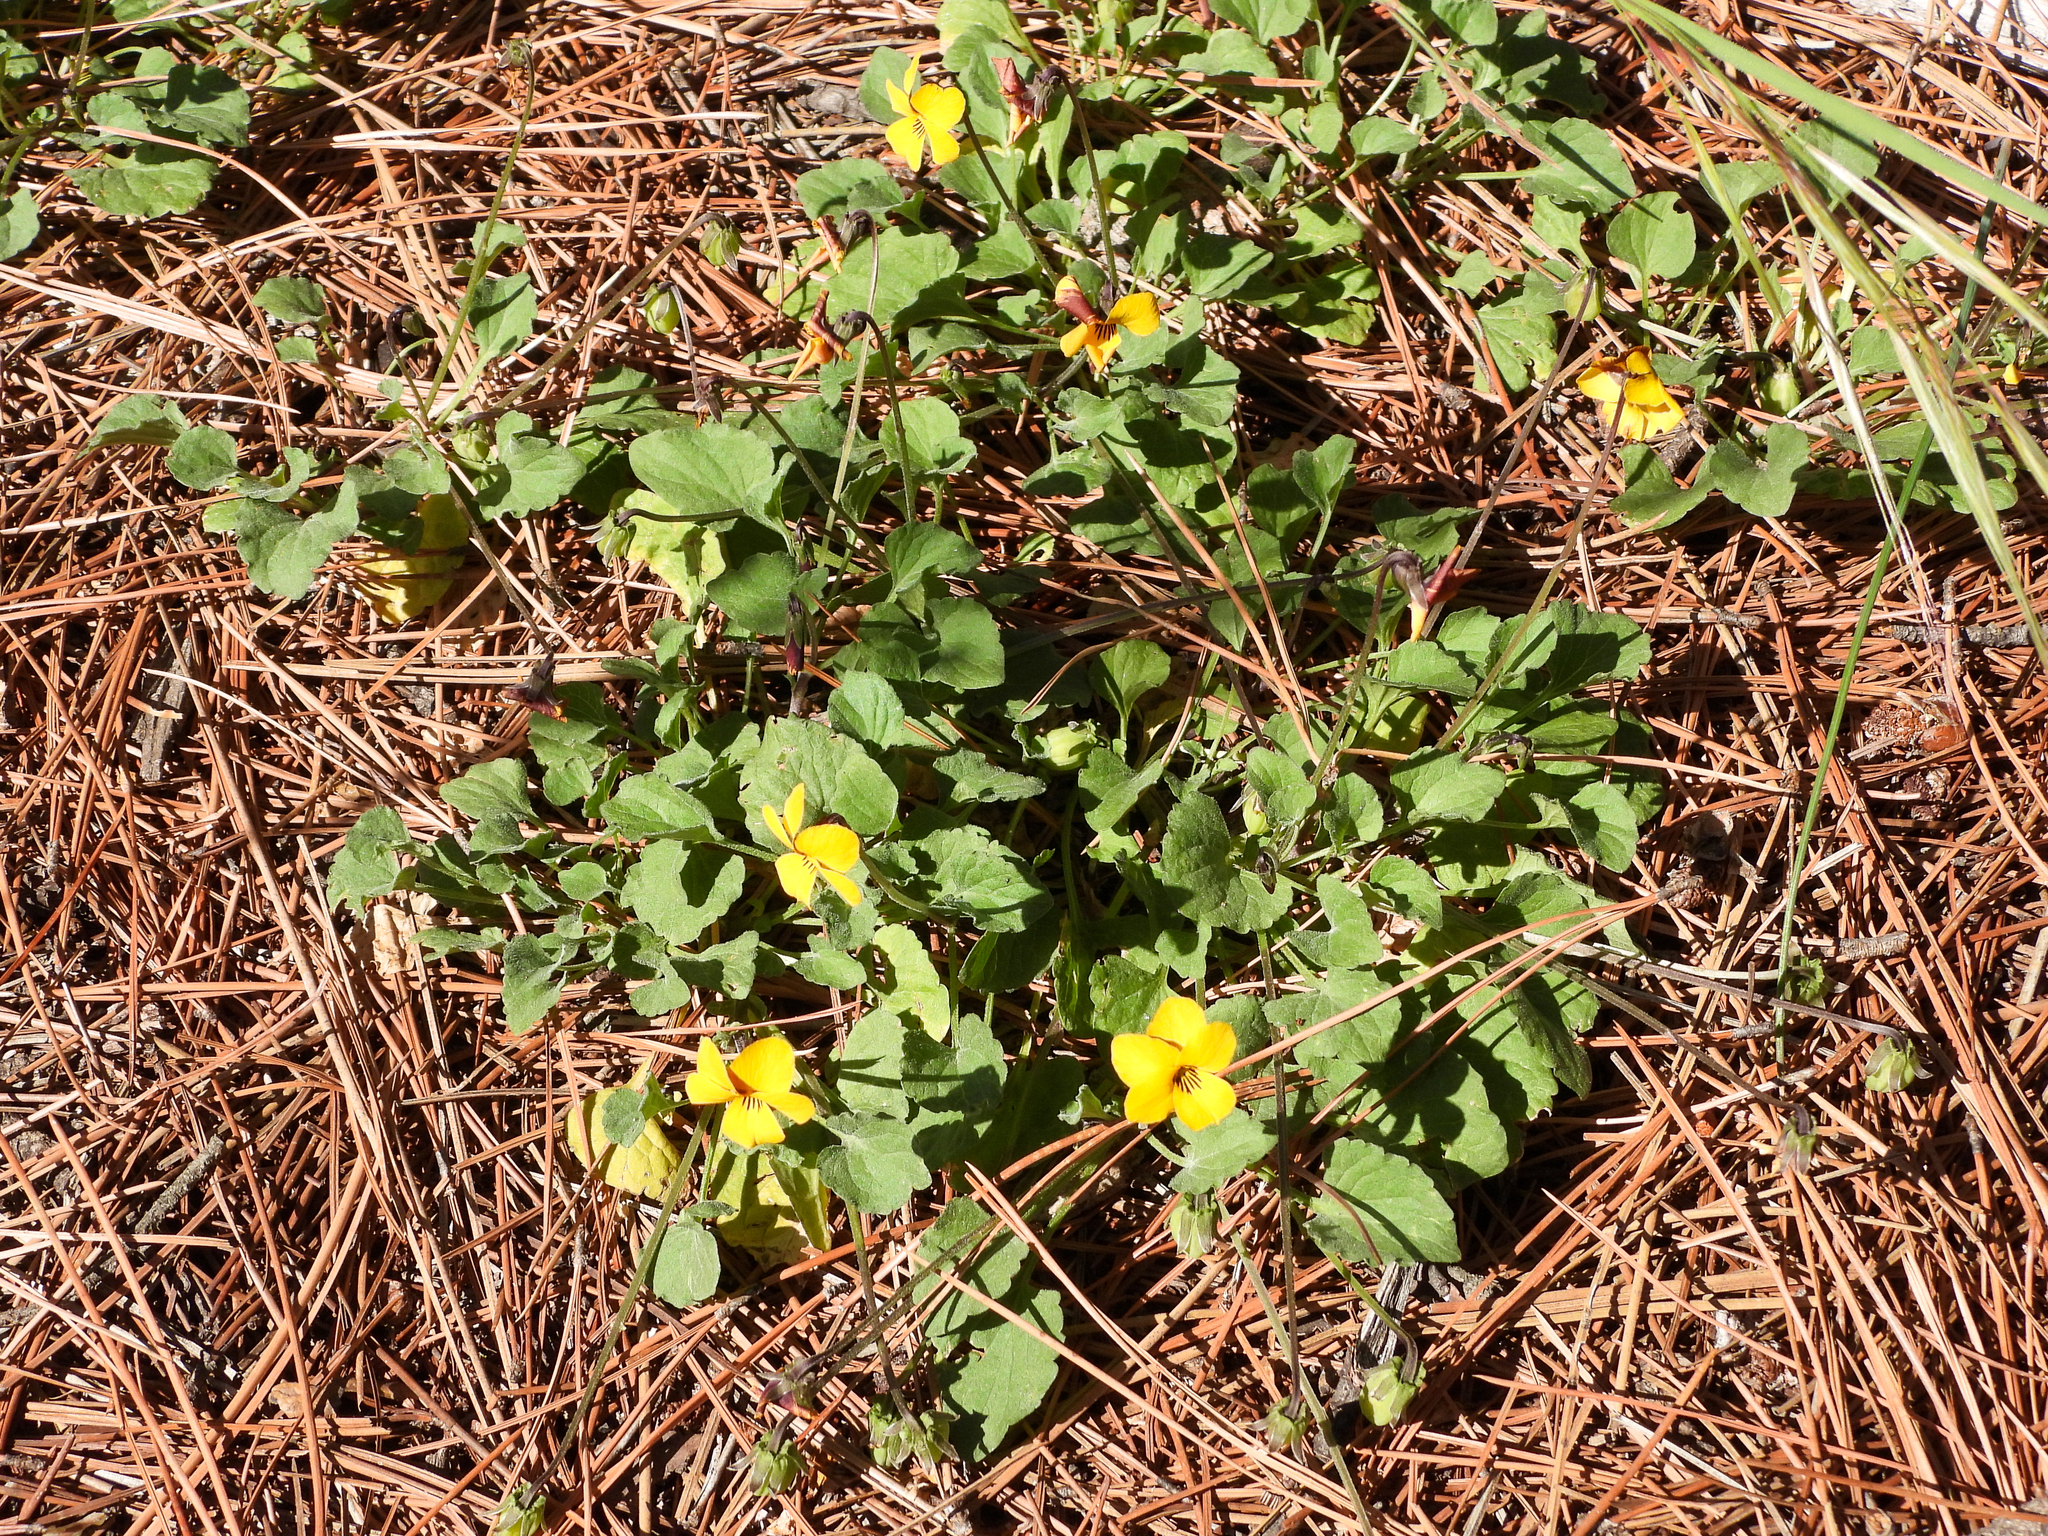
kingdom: Plantae
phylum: Tracheophyta
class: Magnoliopsida
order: Malpighiales
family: Violaceae
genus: Viola
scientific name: Viola pedunculata
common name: California golden violet
